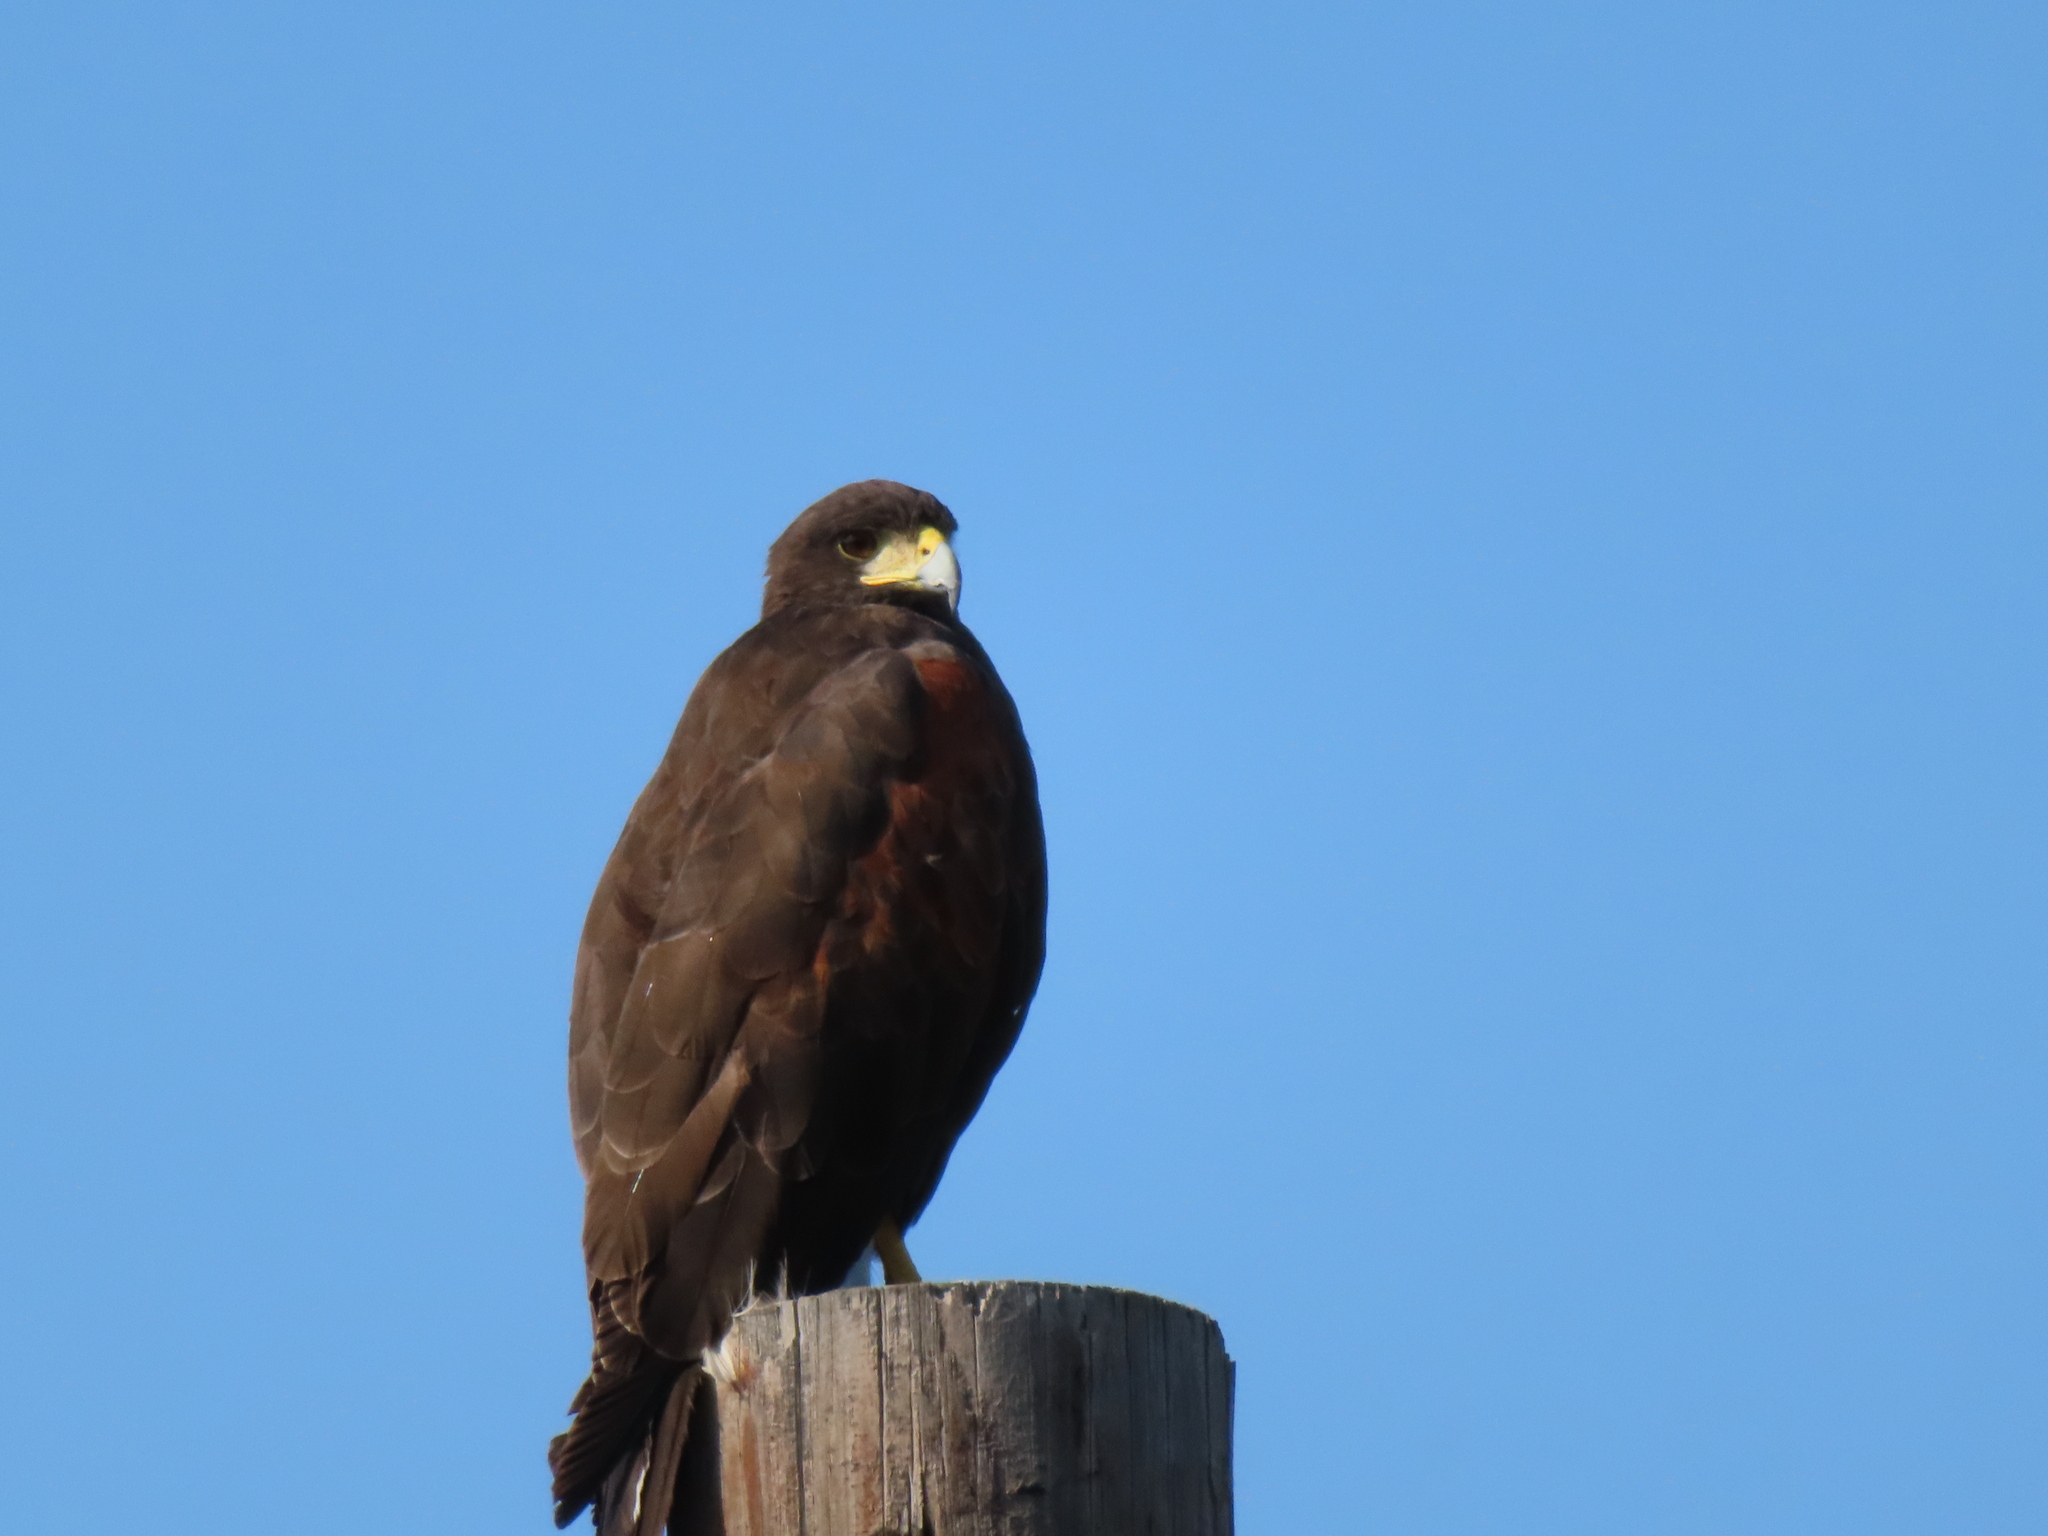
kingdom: Animalia
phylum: Chordata
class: Aves
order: Accipitriformes
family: Accipitridae
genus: Parabuteo
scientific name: Parabuteo unicinctus
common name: Harris's hawk
